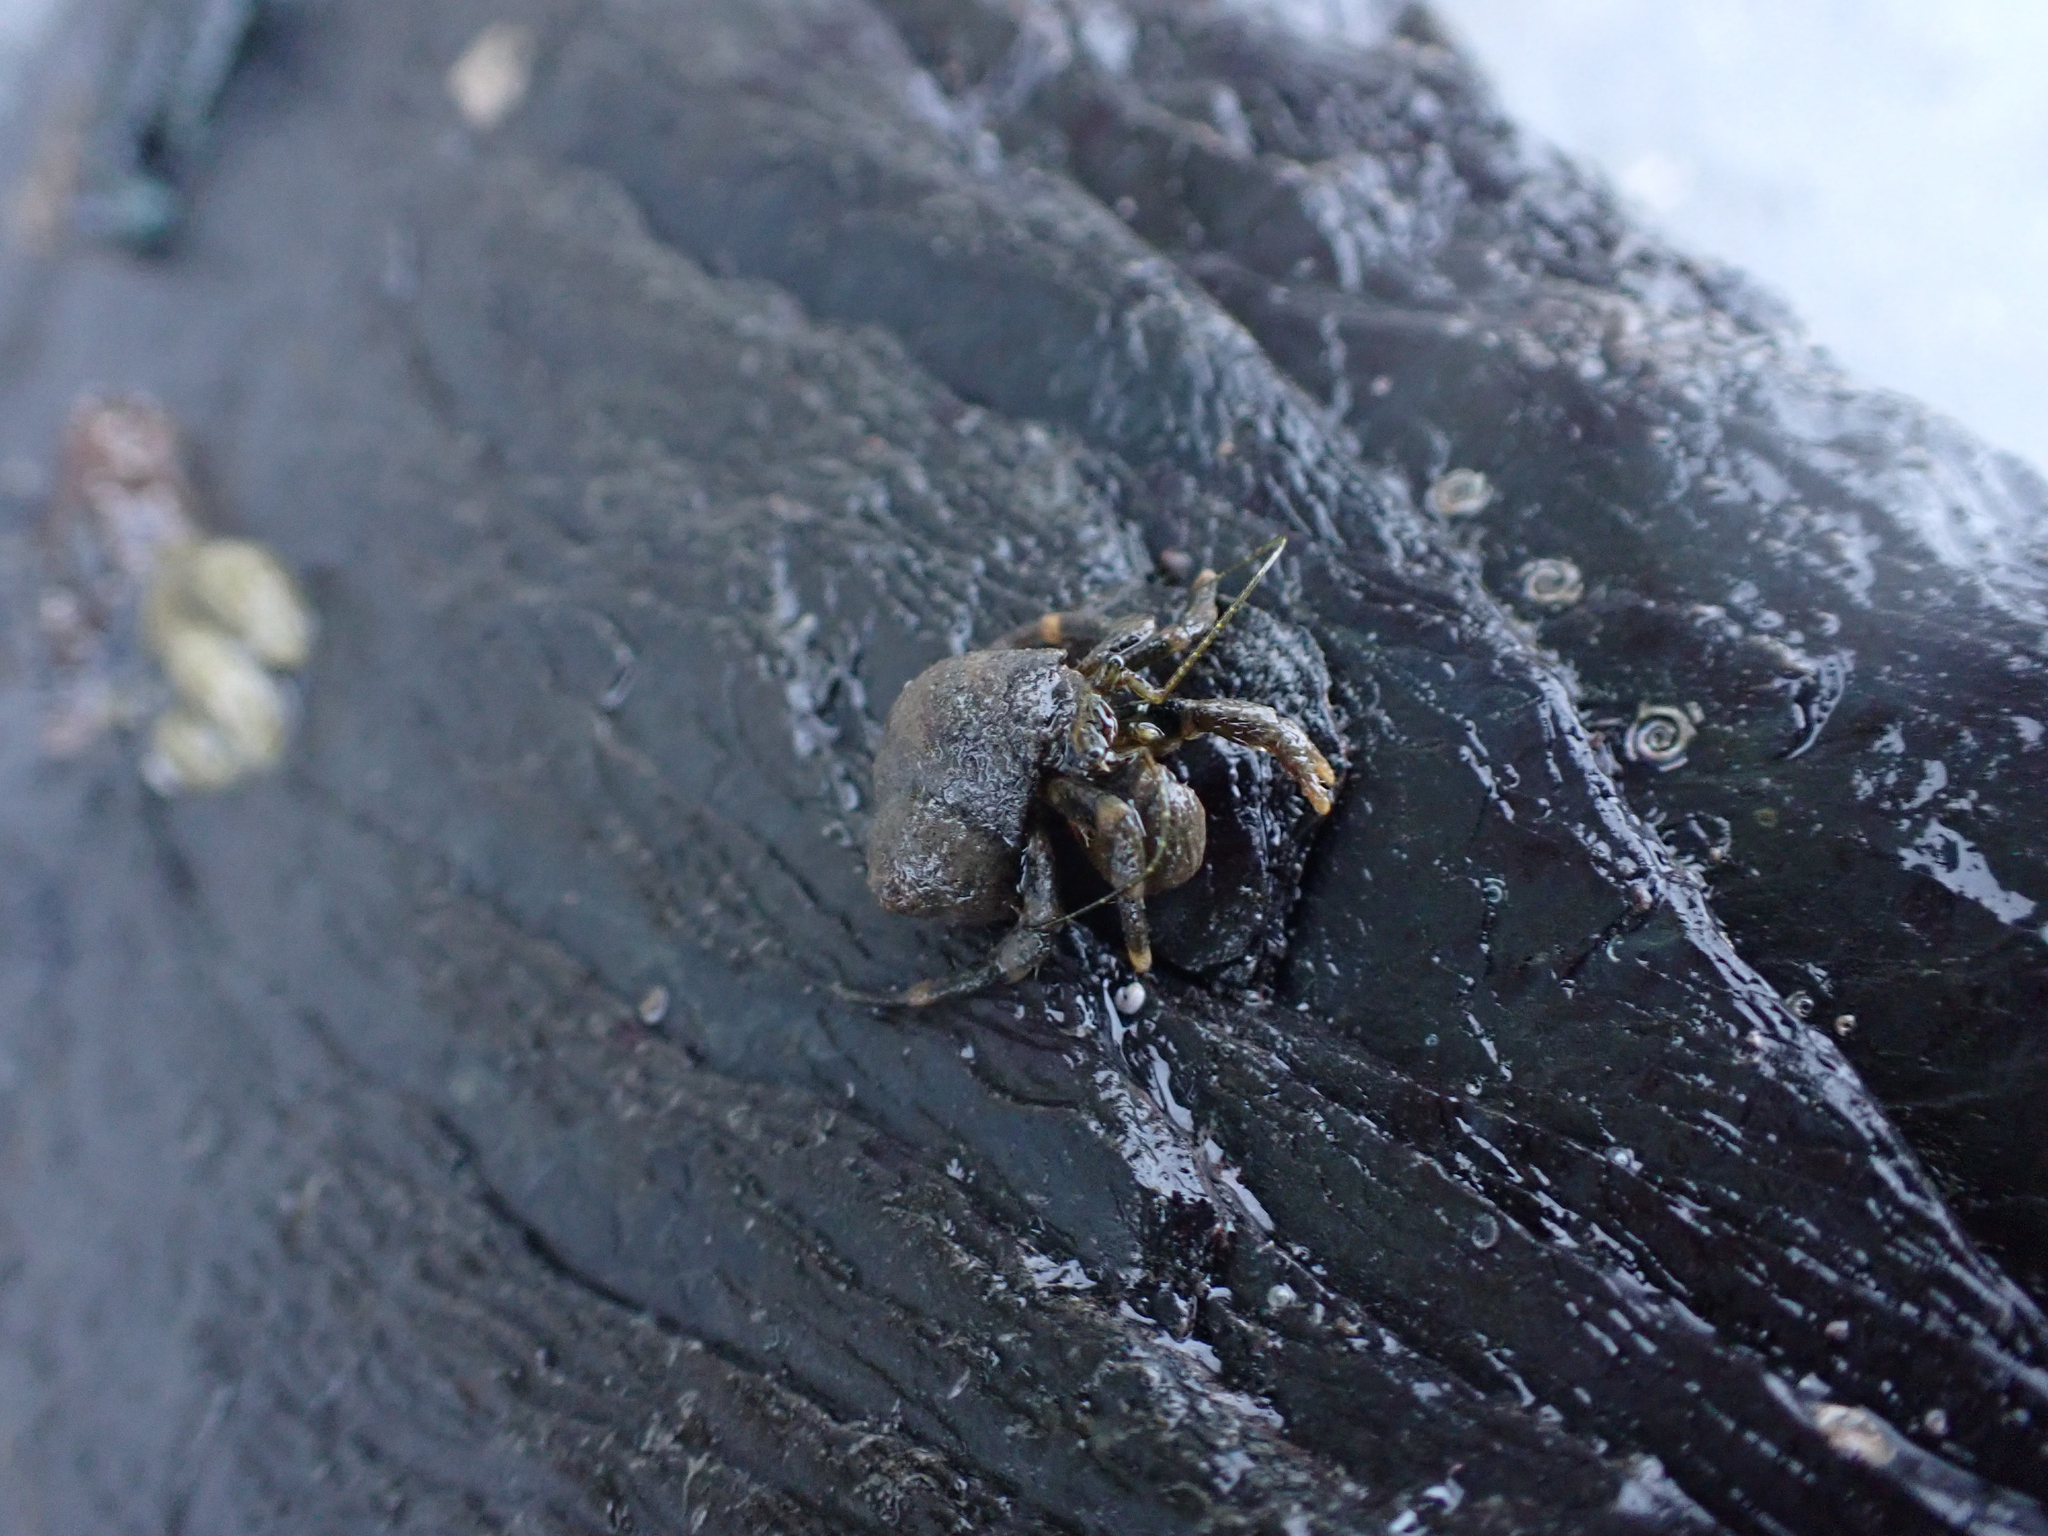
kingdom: Animalia
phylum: Arthropoda
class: Malacostraca
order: Decapoda
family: Paguridae
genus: Pagurus
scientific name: Pagurus hirsutiusculus
